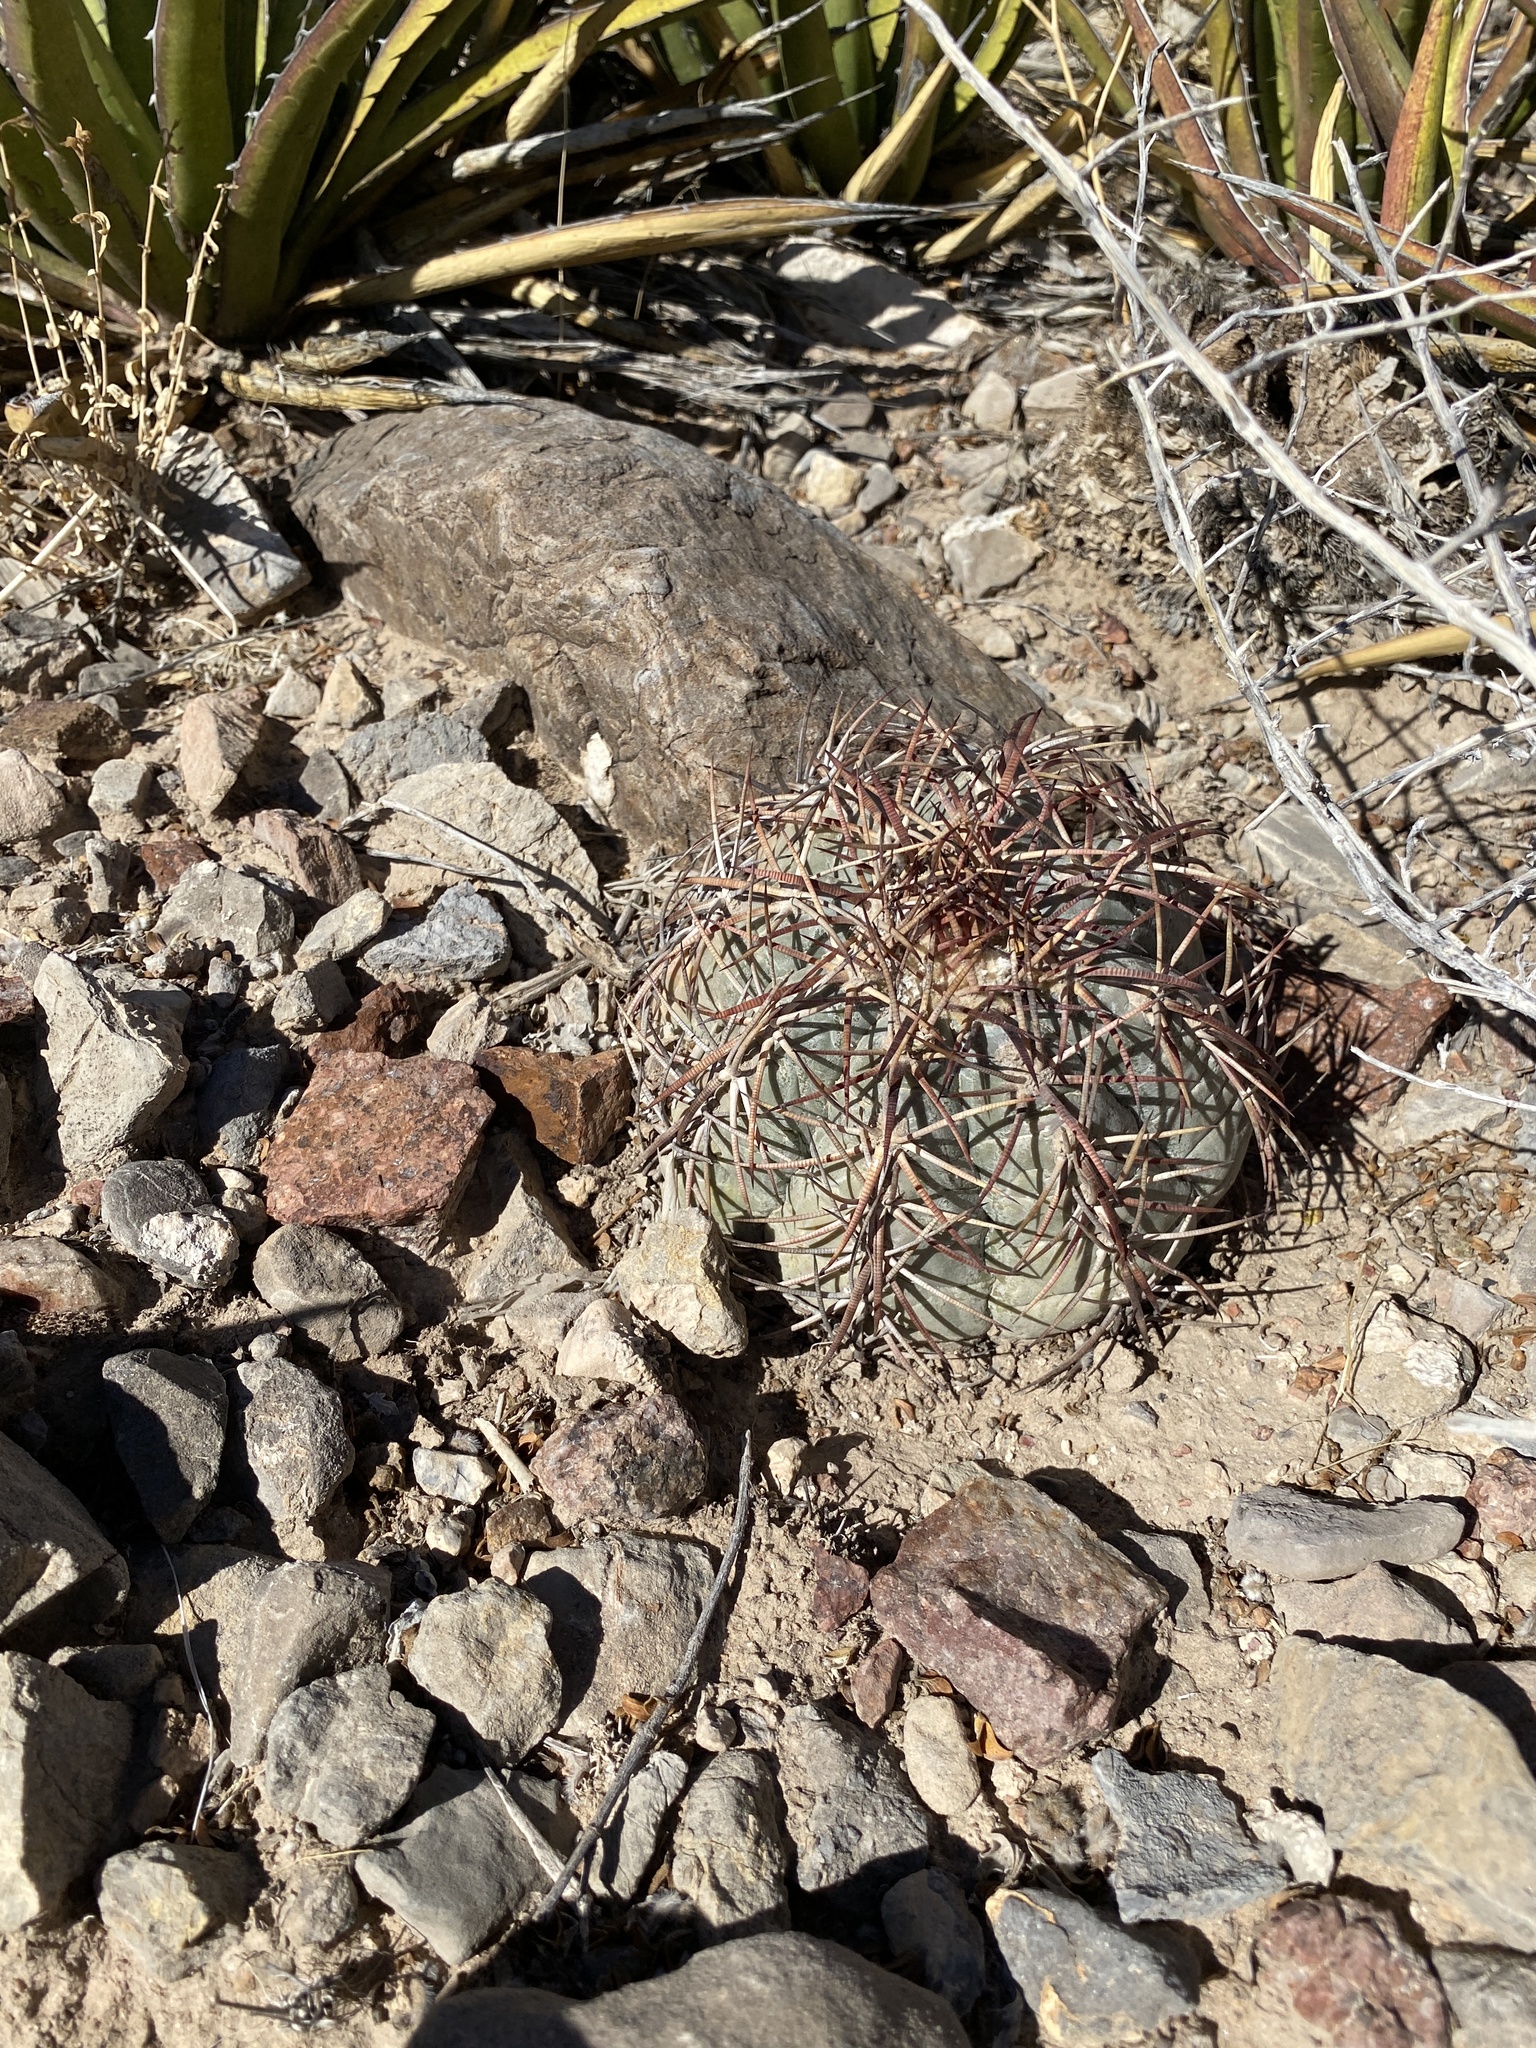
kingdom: Plantae
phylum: Tracheophyta
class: Magnoliopsida
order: Caryophyllales
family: Cactaceae
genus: Echinocactus
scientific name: Echinocactus horizonthalonius
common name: Devilshead
